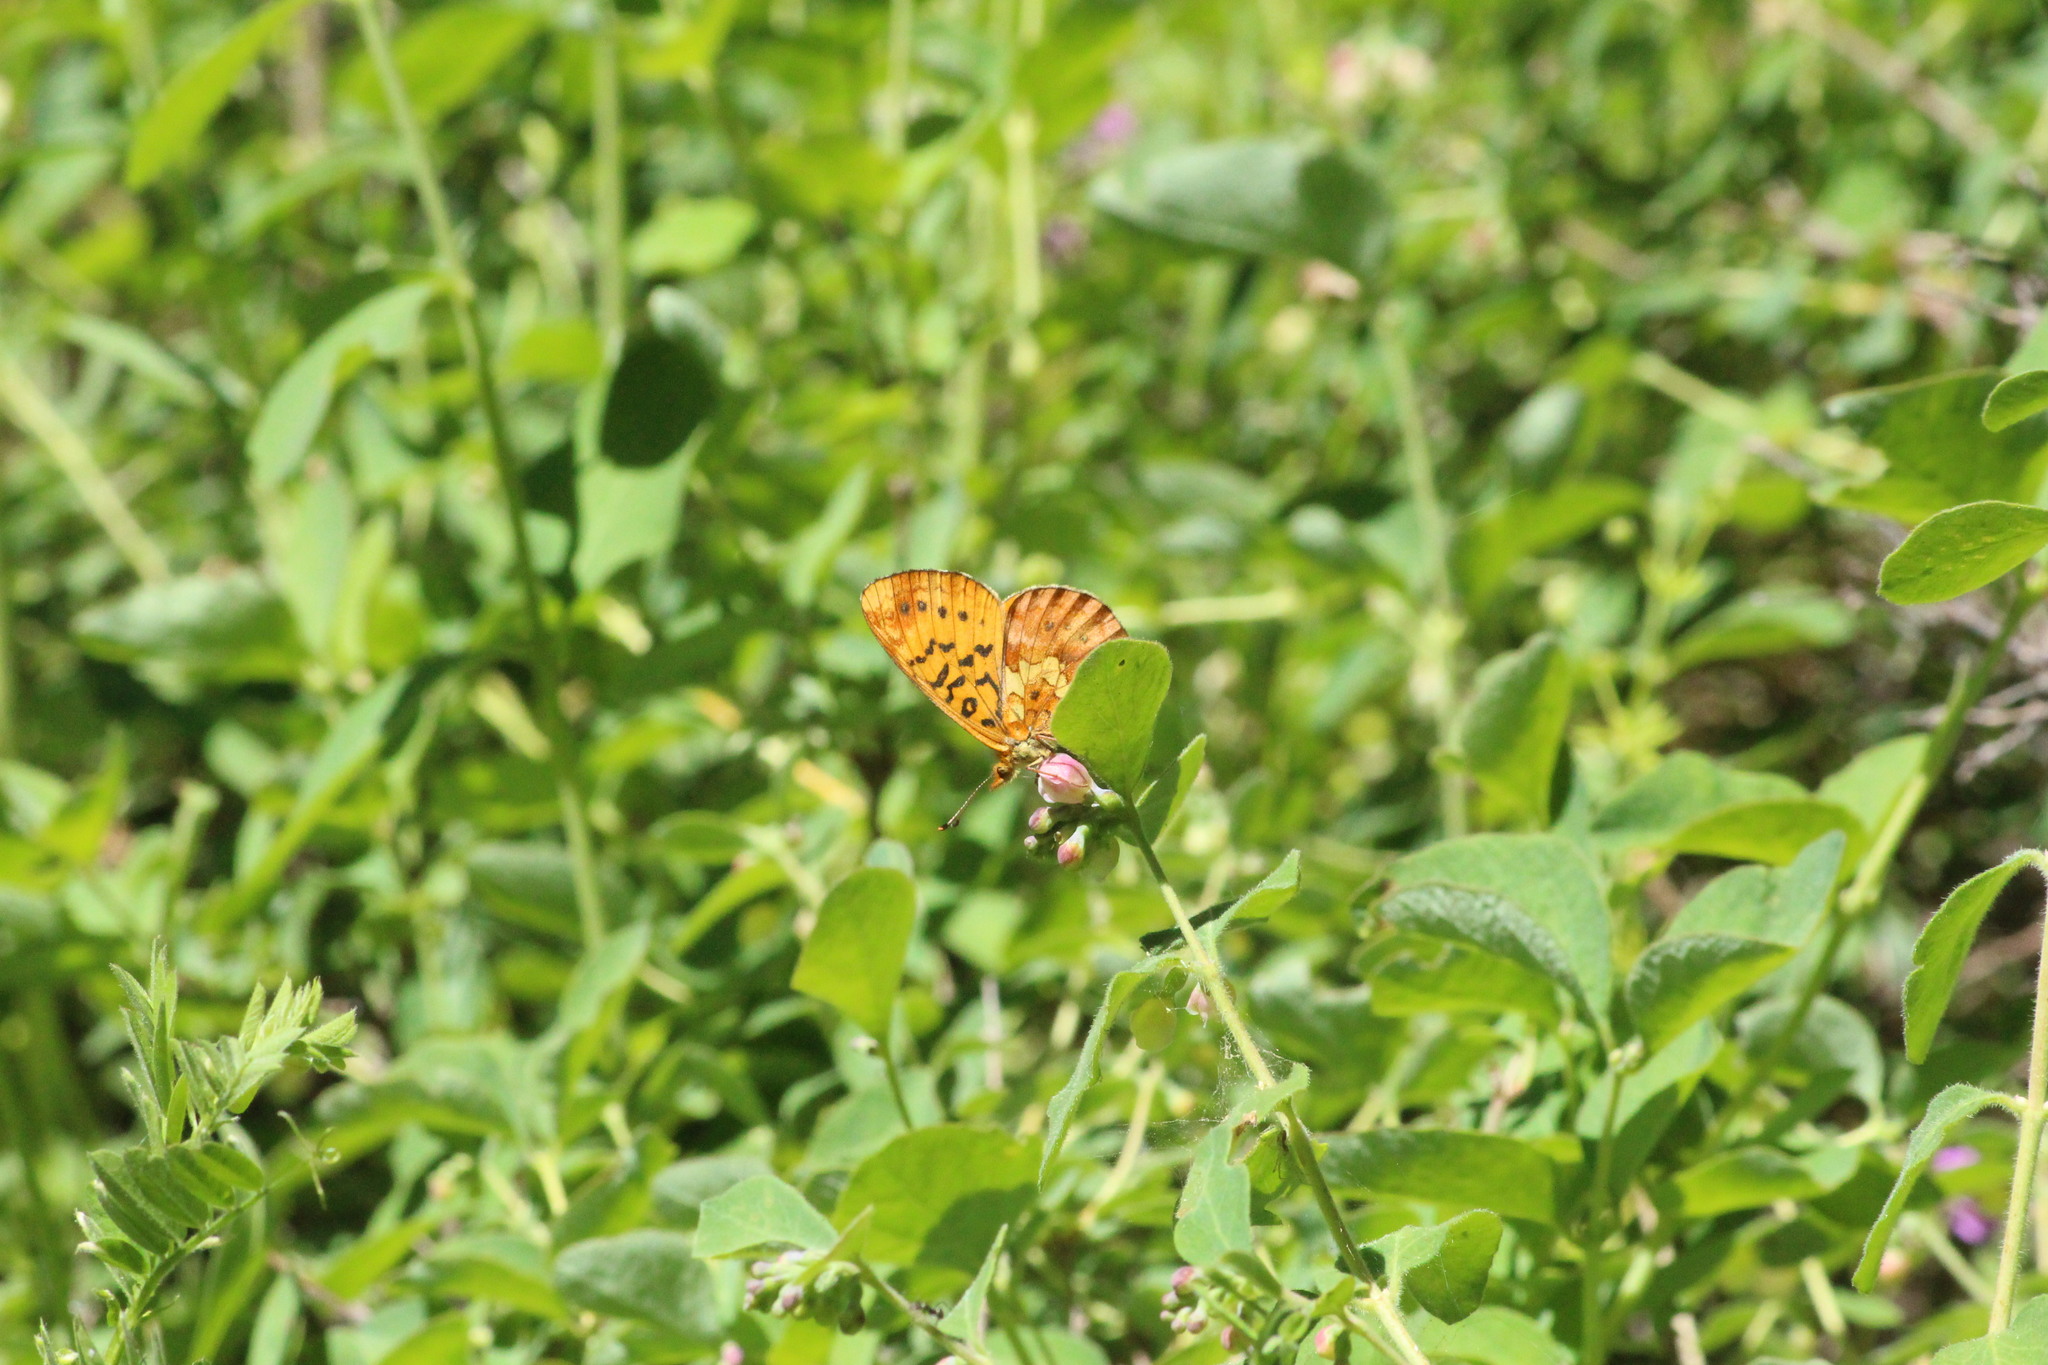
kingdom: Animalia
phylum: Arthropoda
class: Insecta
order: Lepidoptera
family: Nymphalidae
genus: Boloria
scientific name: Boloria epithore
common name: Pacific fritillary
